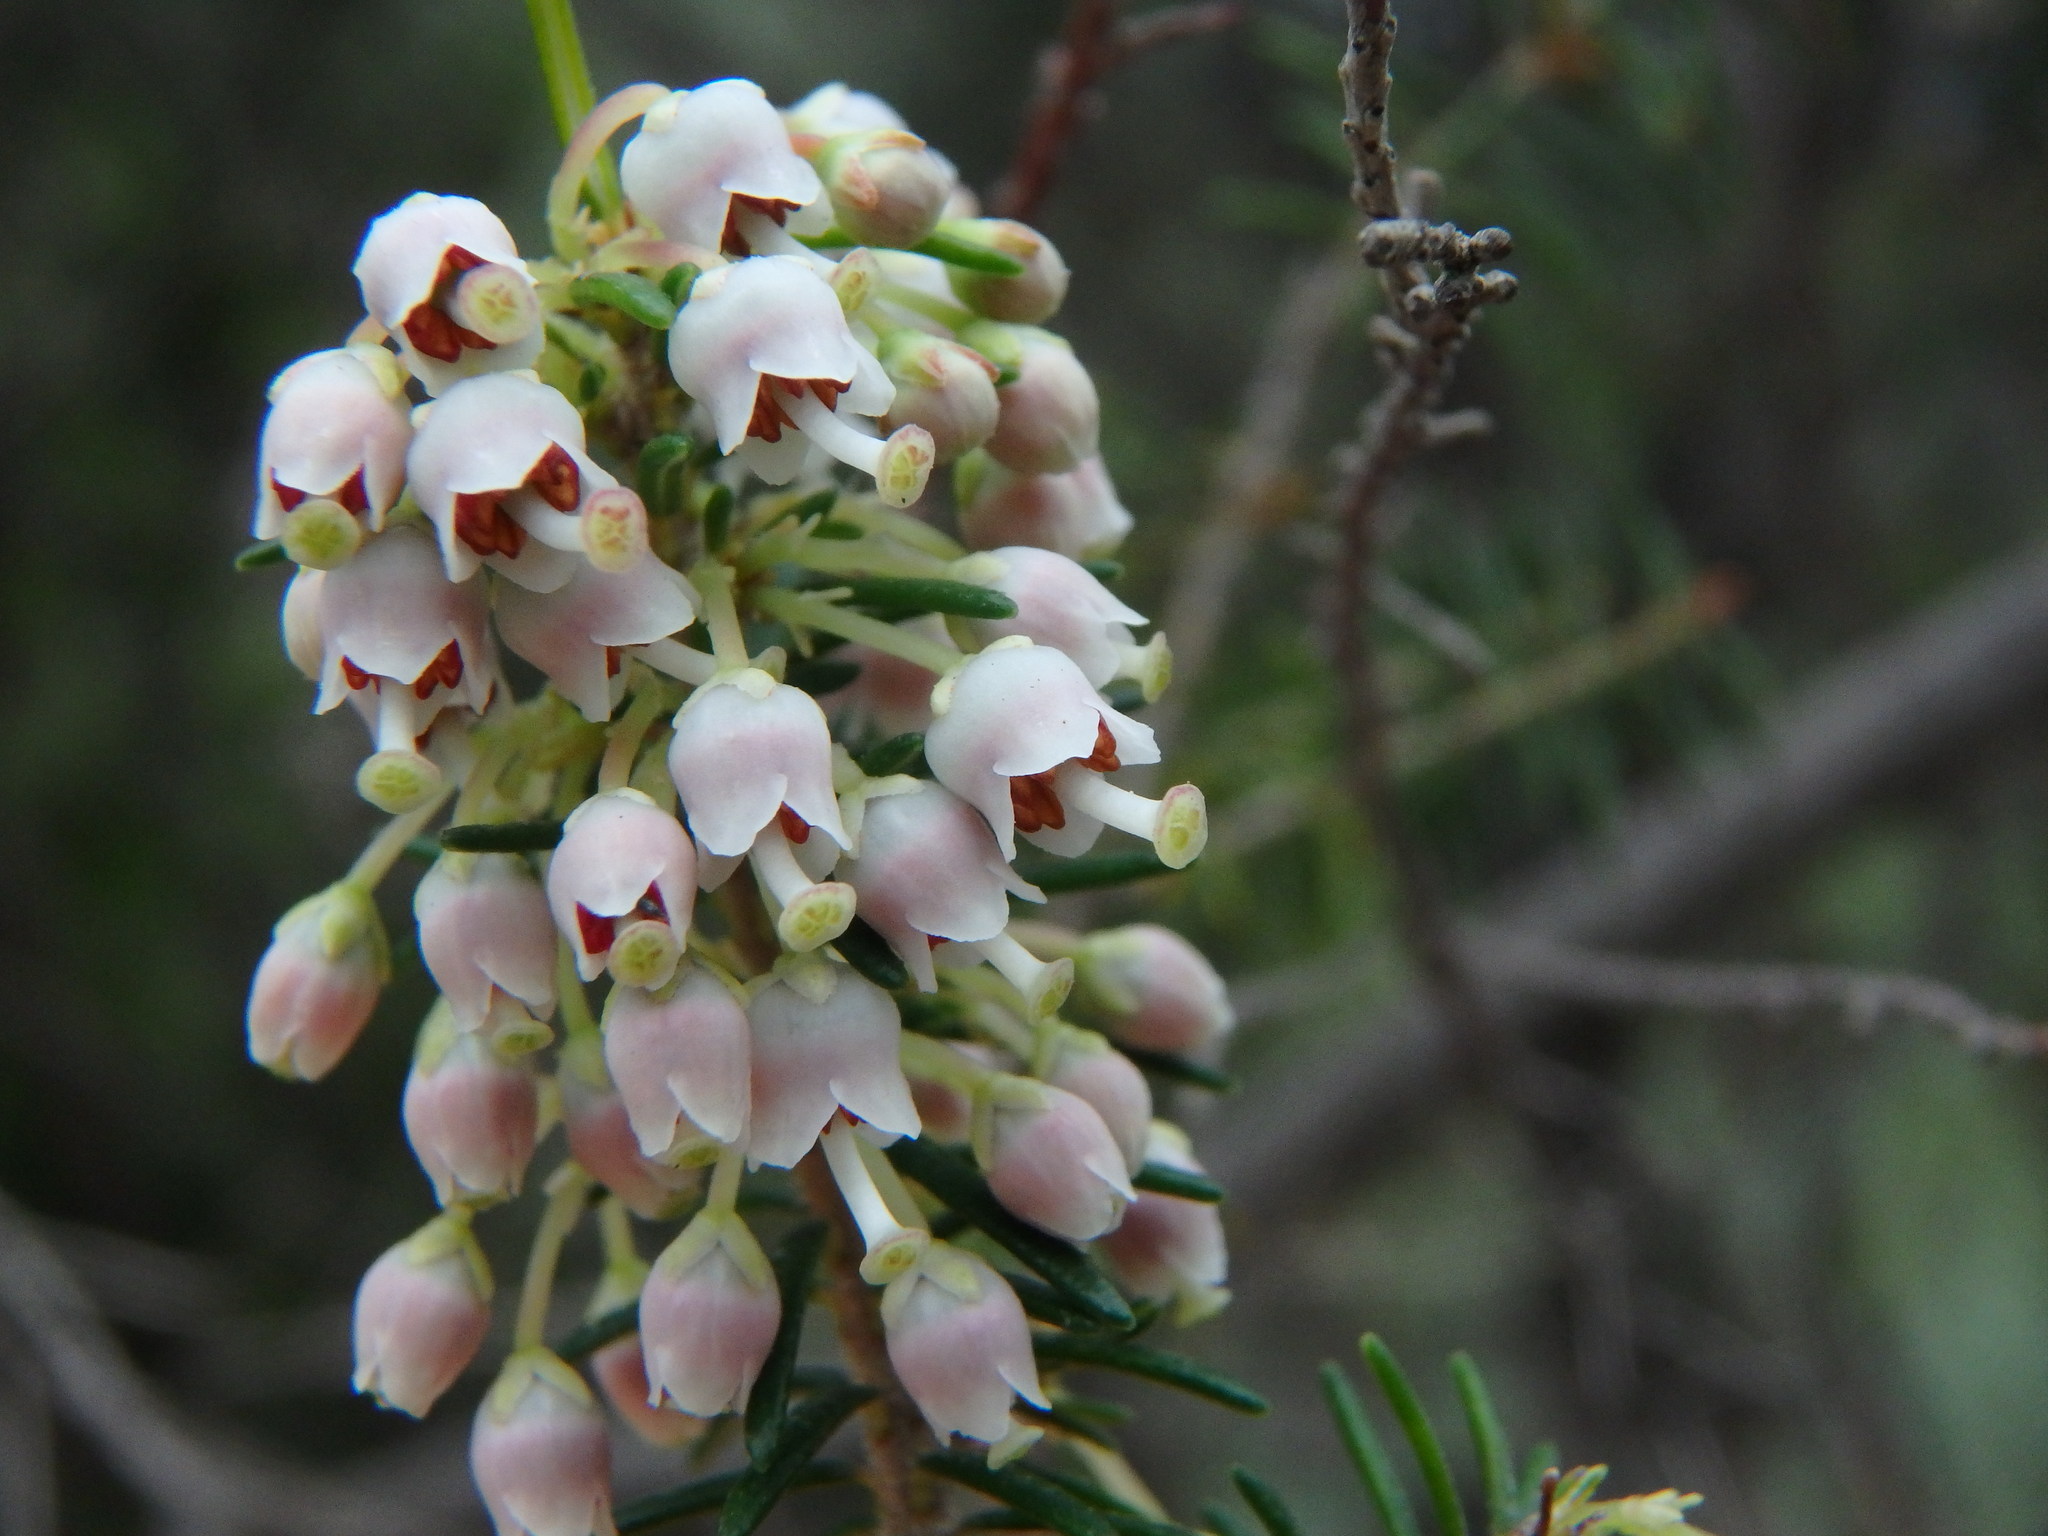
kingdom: Plantae
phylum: Tracheophyta
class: Magnoliopsida
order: Ericales
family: Ericaceae
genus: Erica
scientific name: Erica canariensis
